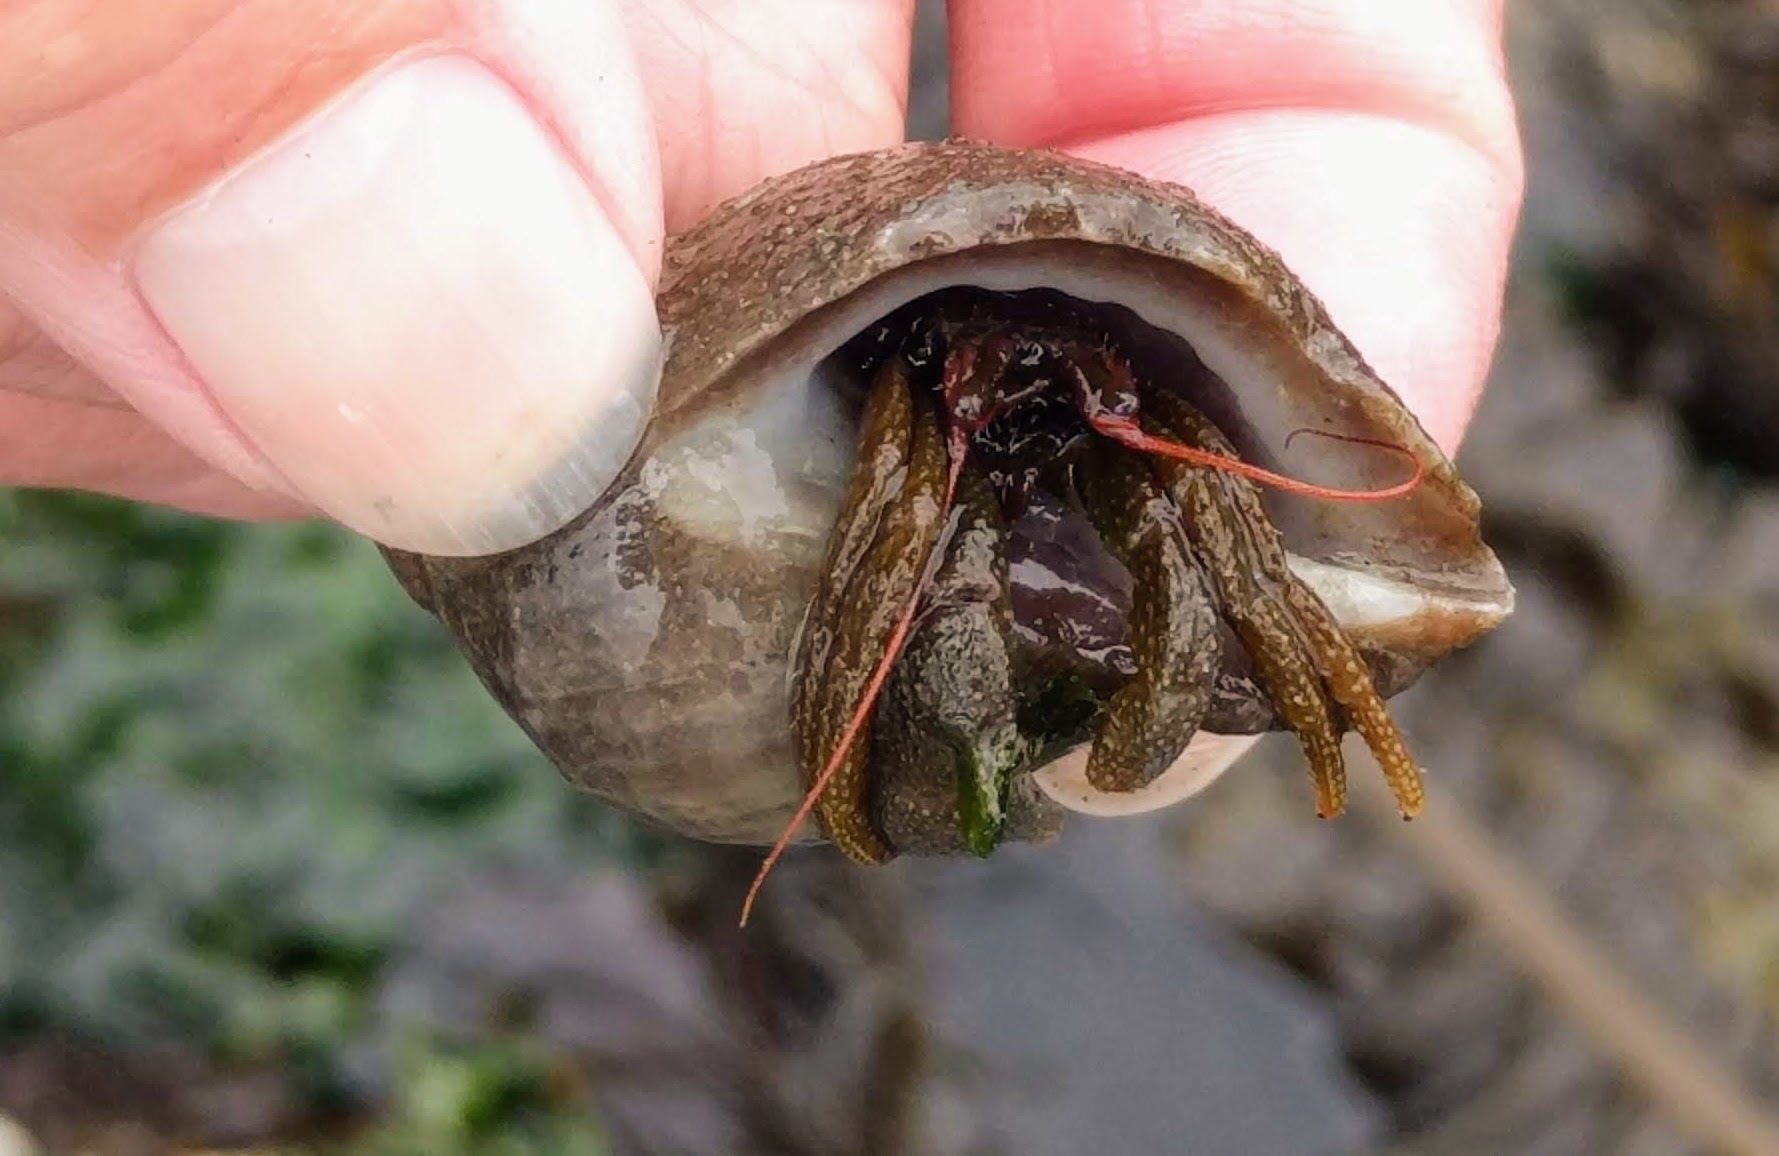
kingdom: Animalia
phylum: Arthropoda
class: Malacostraca
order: Decapoda
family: Paguridae
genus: Pagurus
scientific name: Pagurus granosimanus
